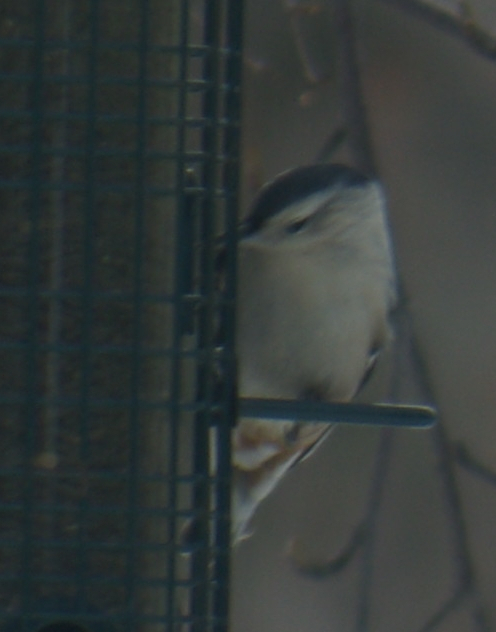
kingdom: Animalia
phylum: Chordata
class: Aves
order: Passeriformes
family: Sittidae
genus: Sitta
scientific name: Sitta carolinensis
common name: White-breasted nuthatch
